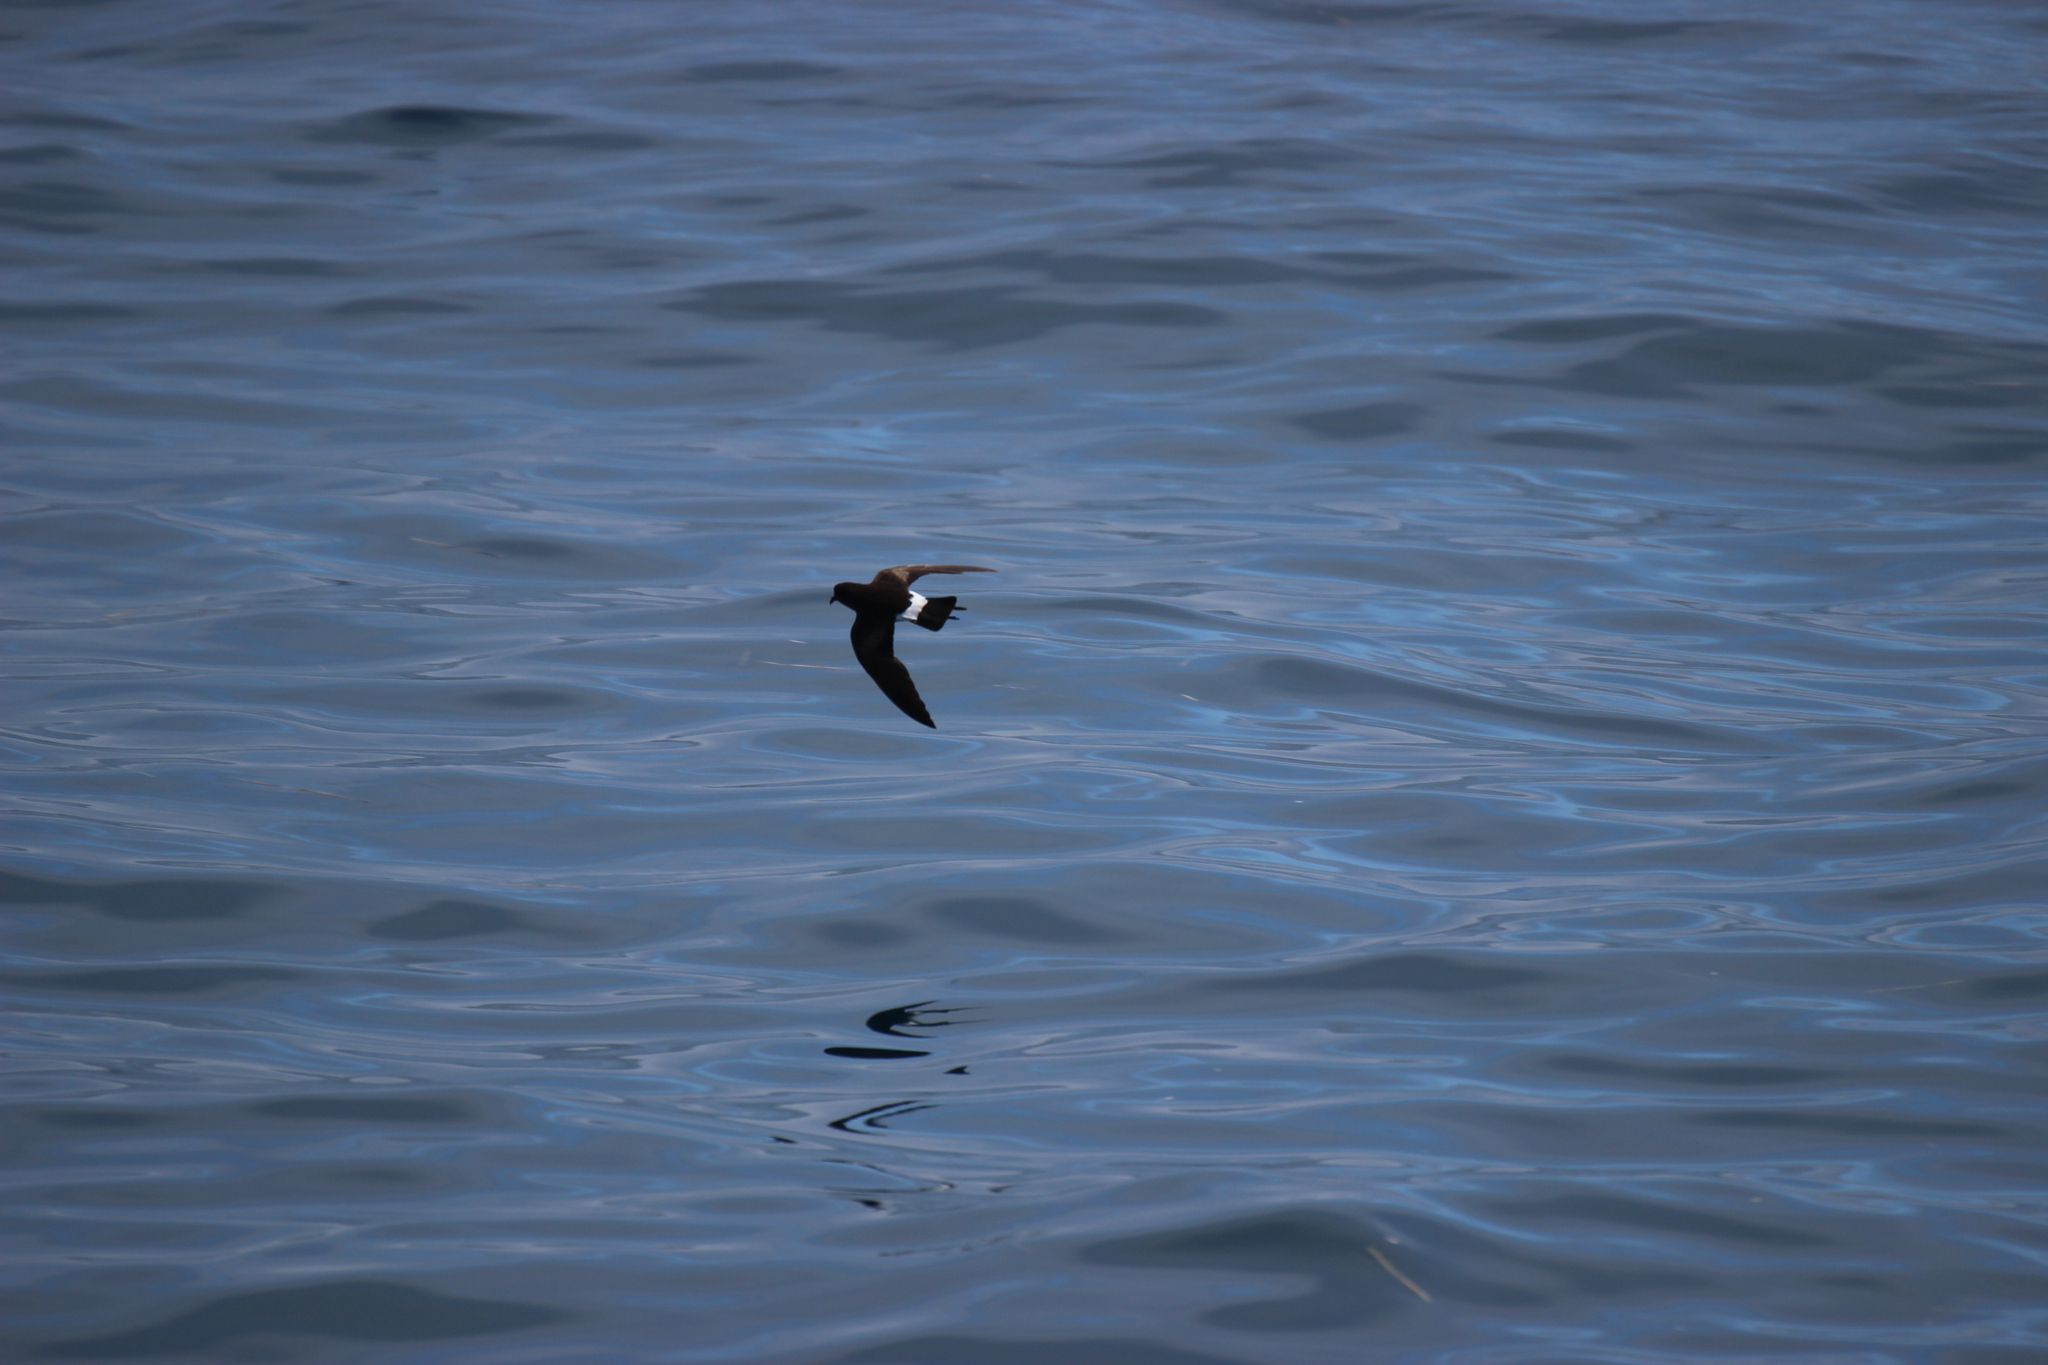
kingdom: Animalia
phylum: Chordata
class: Aves
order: Procellariiformes
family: Hydrobatidae
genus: Oceanites
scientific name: Oceanites oceanicus
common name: Wilson's storm petrel
